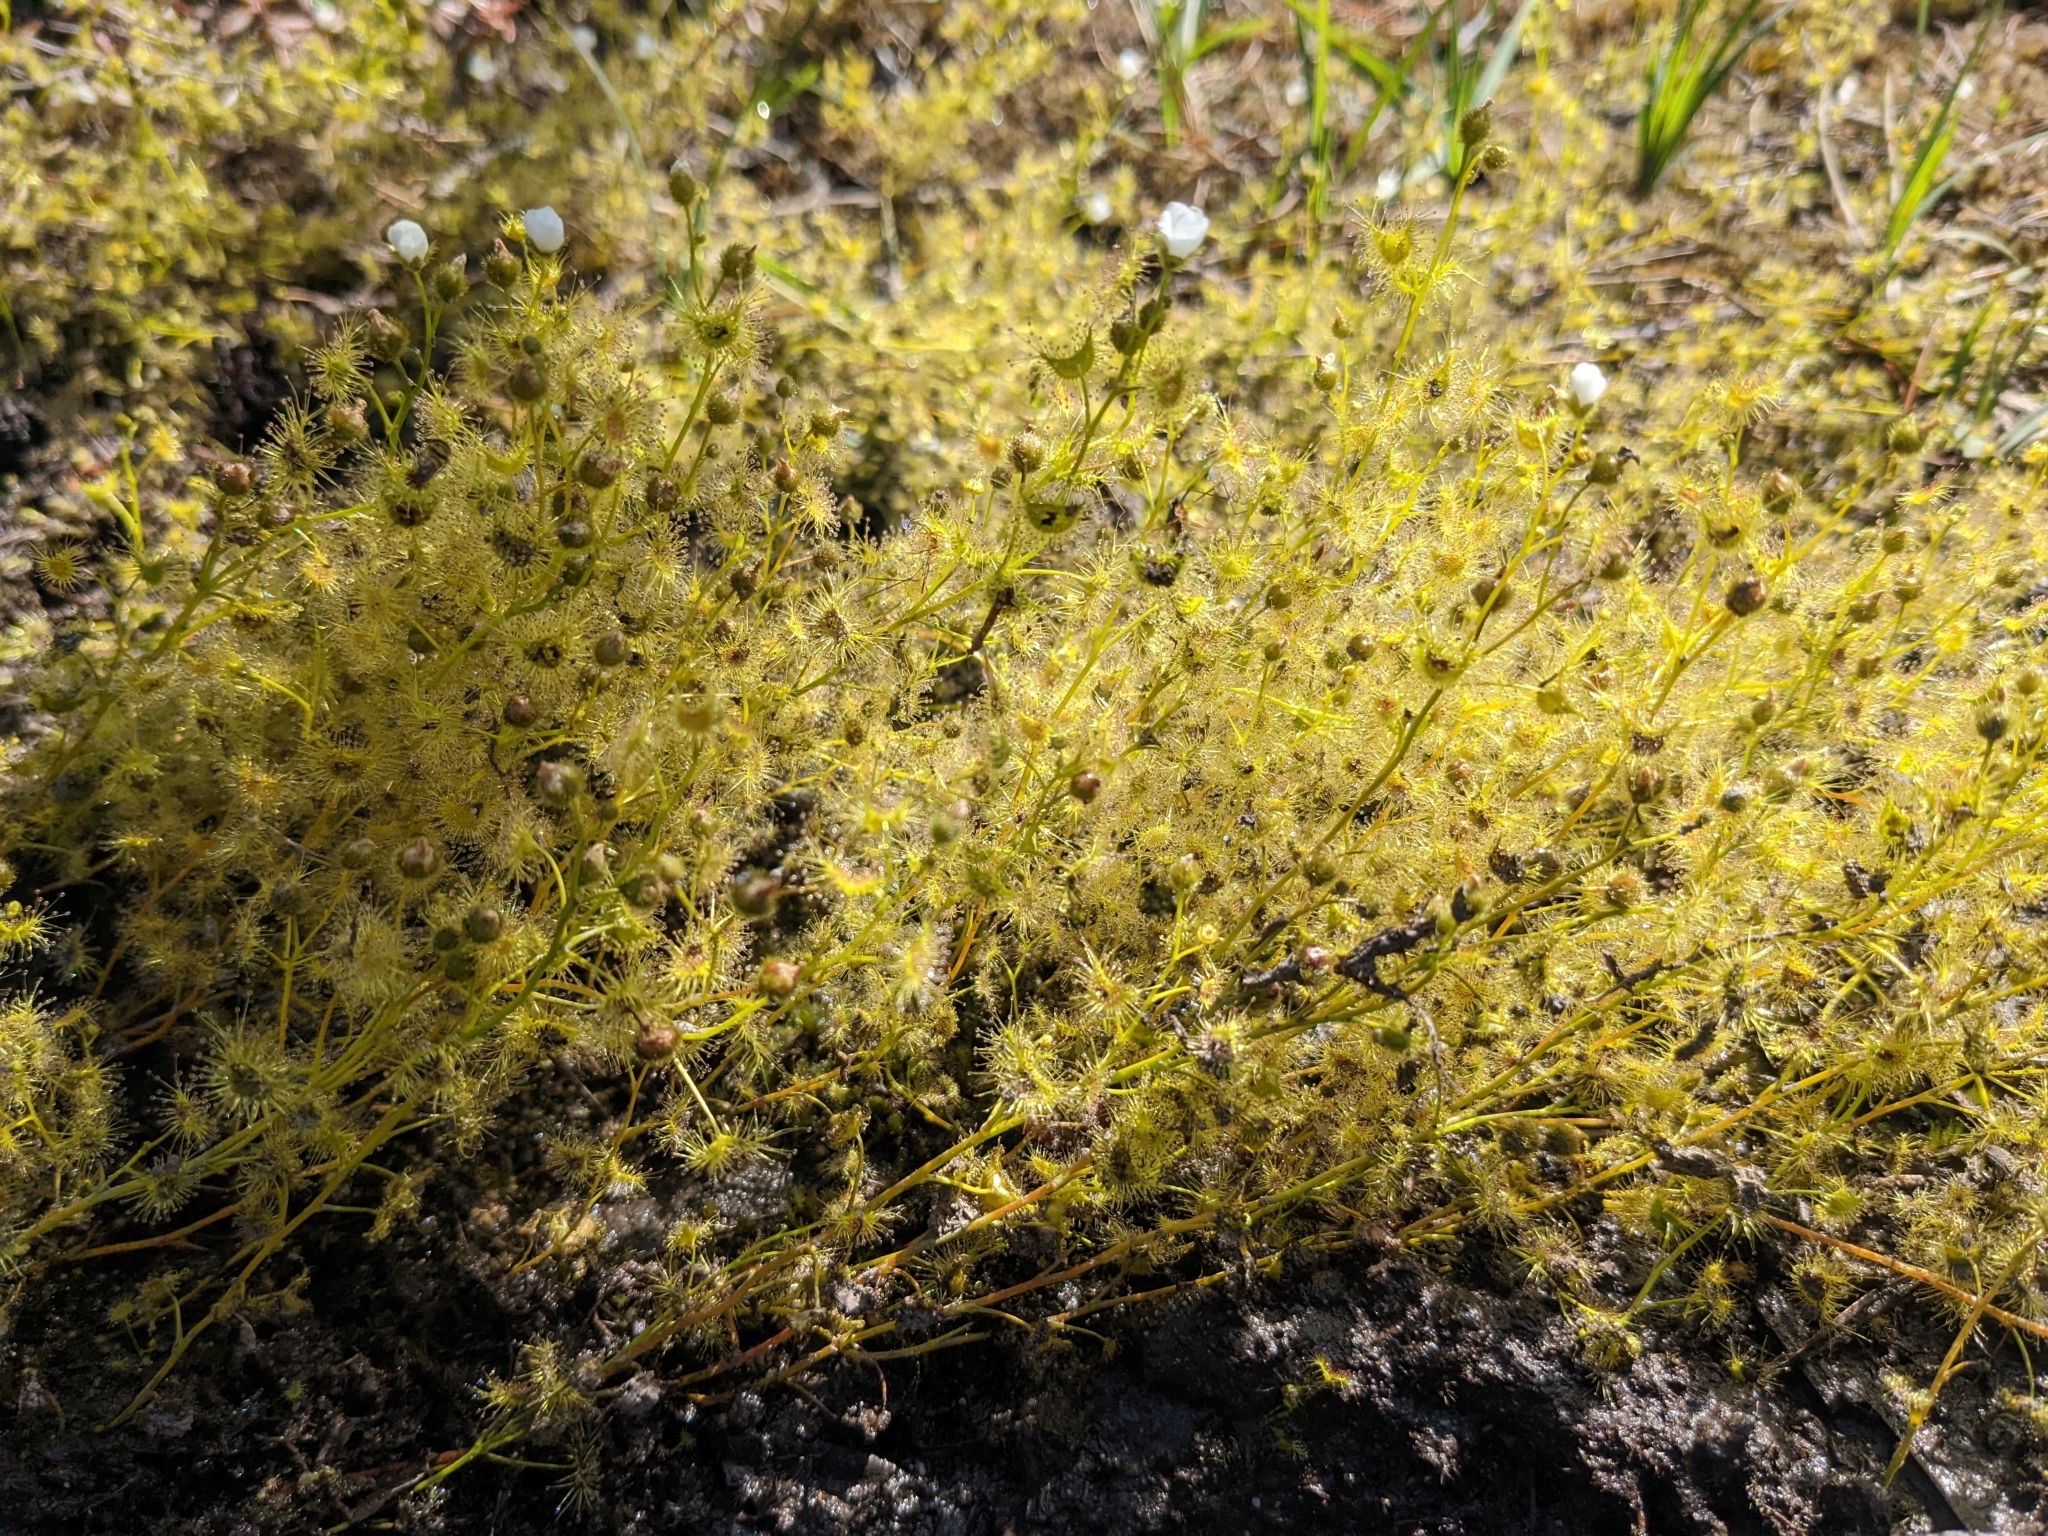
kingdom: Plantae
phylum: Tracheophyta
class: Magnoliopsida
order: Caryophyllales
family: Droseraceae
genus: Drosera
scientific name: Drosera gunniana
